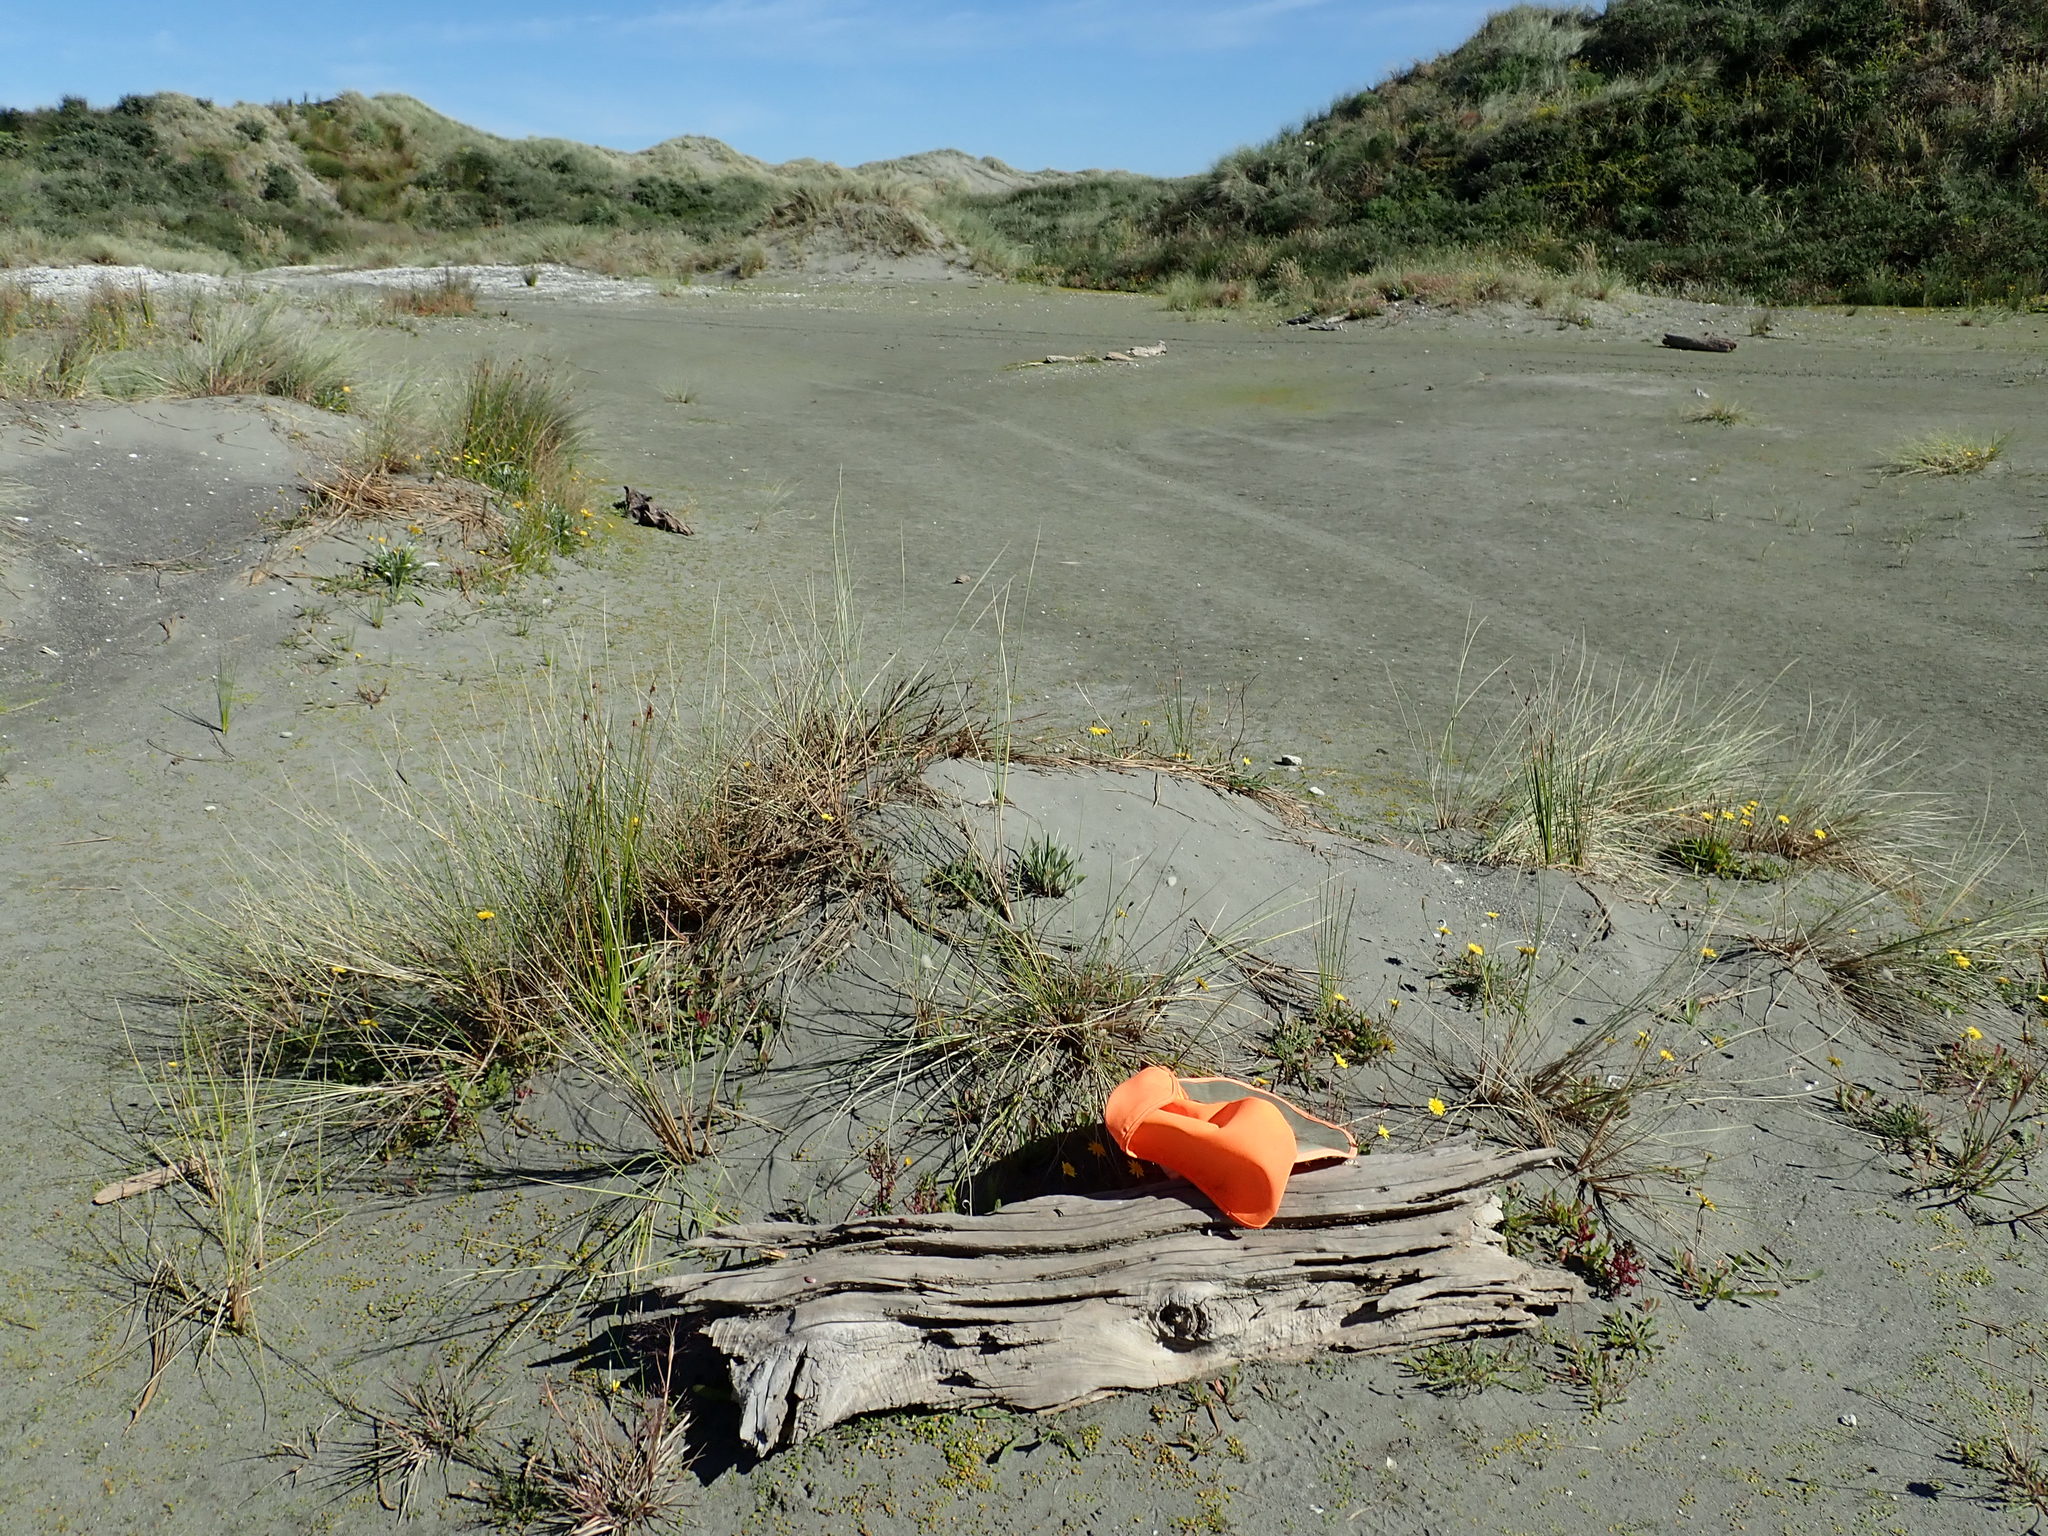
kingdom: Animalia
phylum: Arthropoda
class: Arachnida
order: Araneae
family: Dysderidae
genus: Dysdera
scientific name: Dysdera crocata
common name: Woodlouse spider
